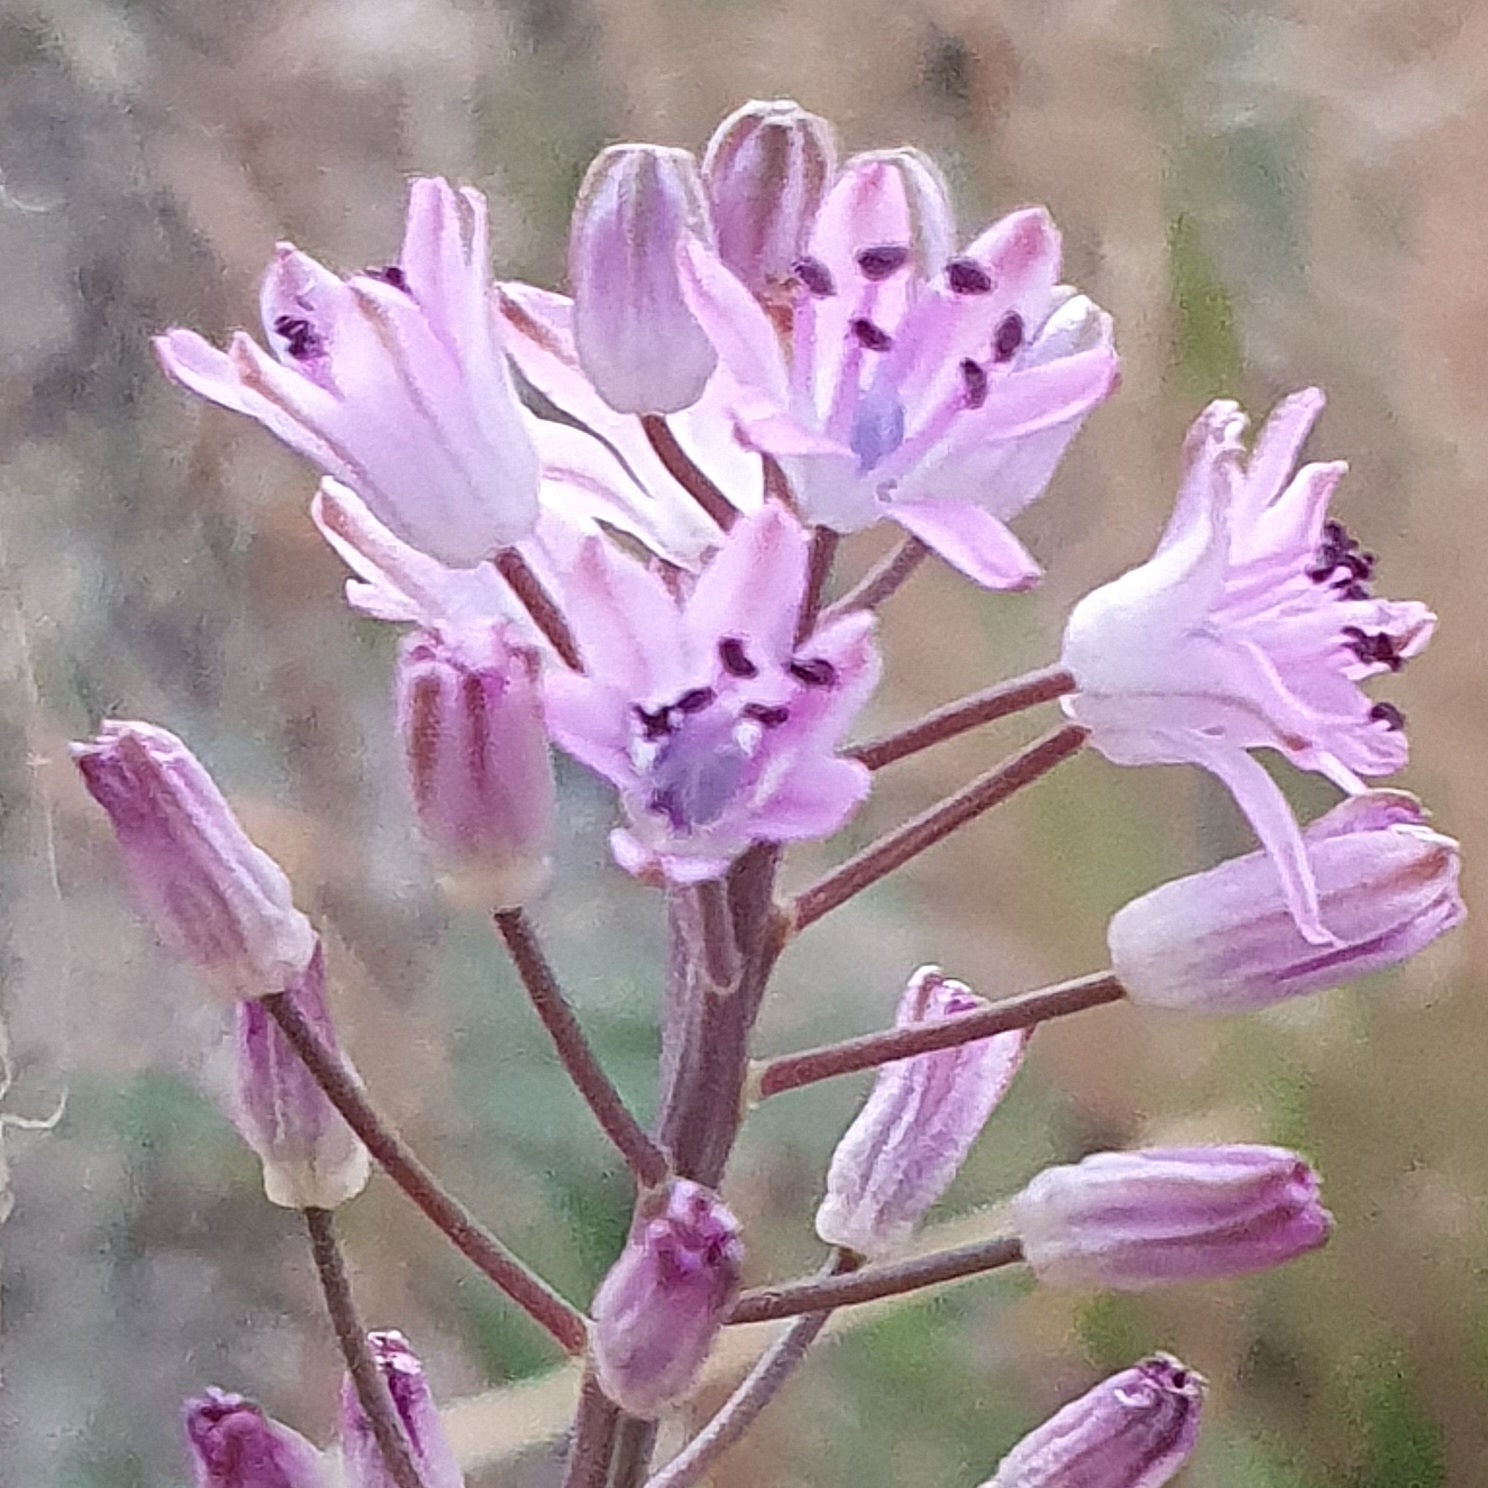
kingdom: Plantae
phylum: Tracheophyta
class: Liliopsida
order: Asparagales
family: Asparagaceae
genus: Prospero
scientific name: Prospero obtusifolium
